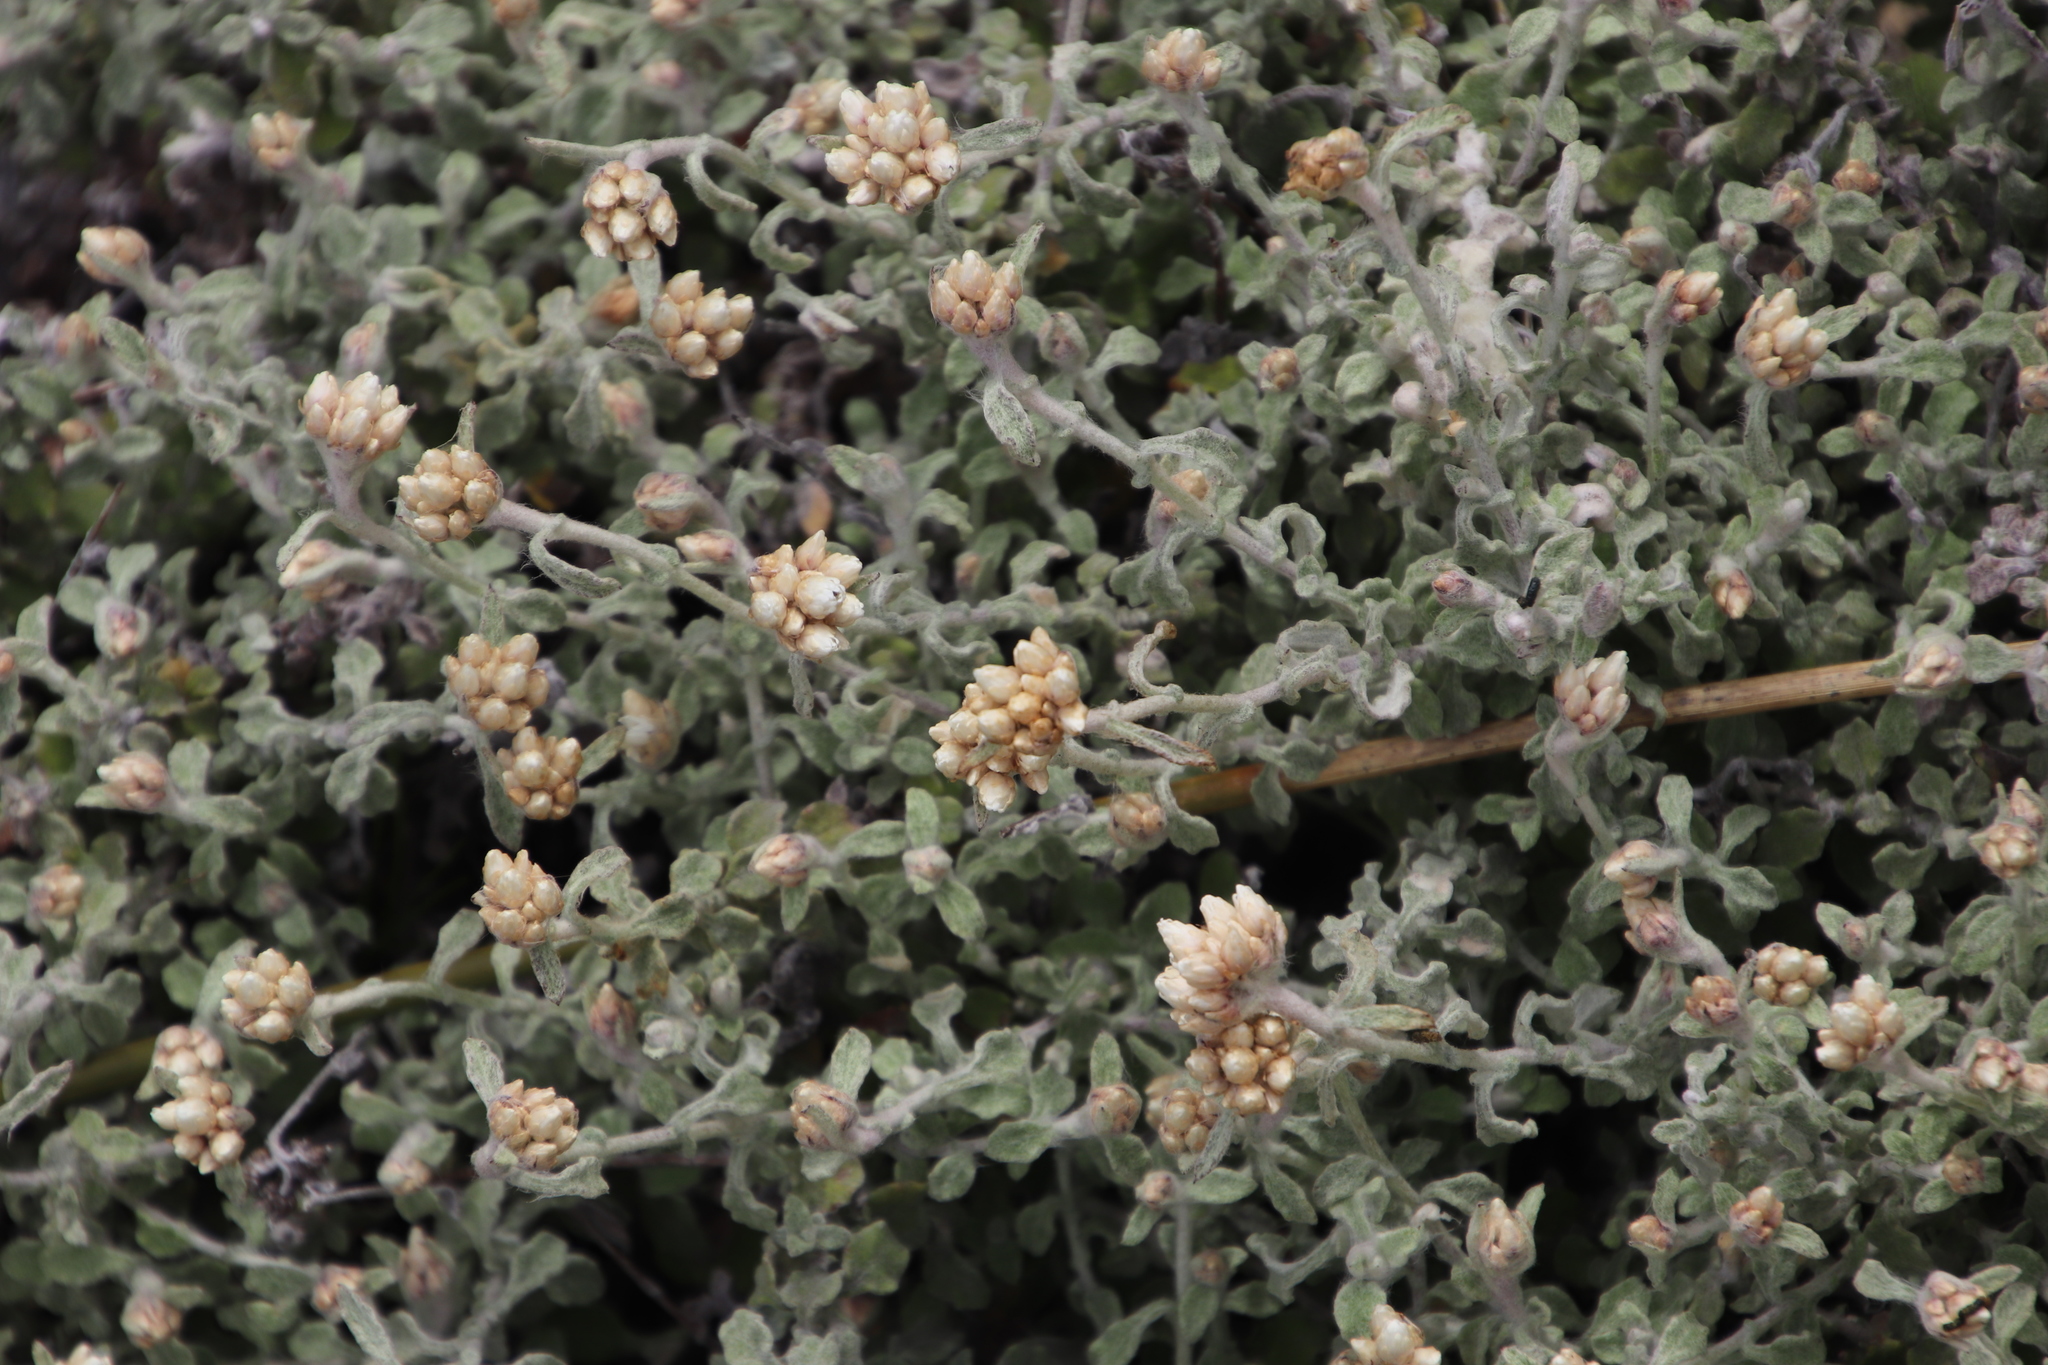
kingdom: Plantae
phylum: Tracheophyta
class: Magnoliopsida
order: Asterales
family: Asteraceae
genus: Helichrysum
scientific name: Helichrysum pandurifolium
